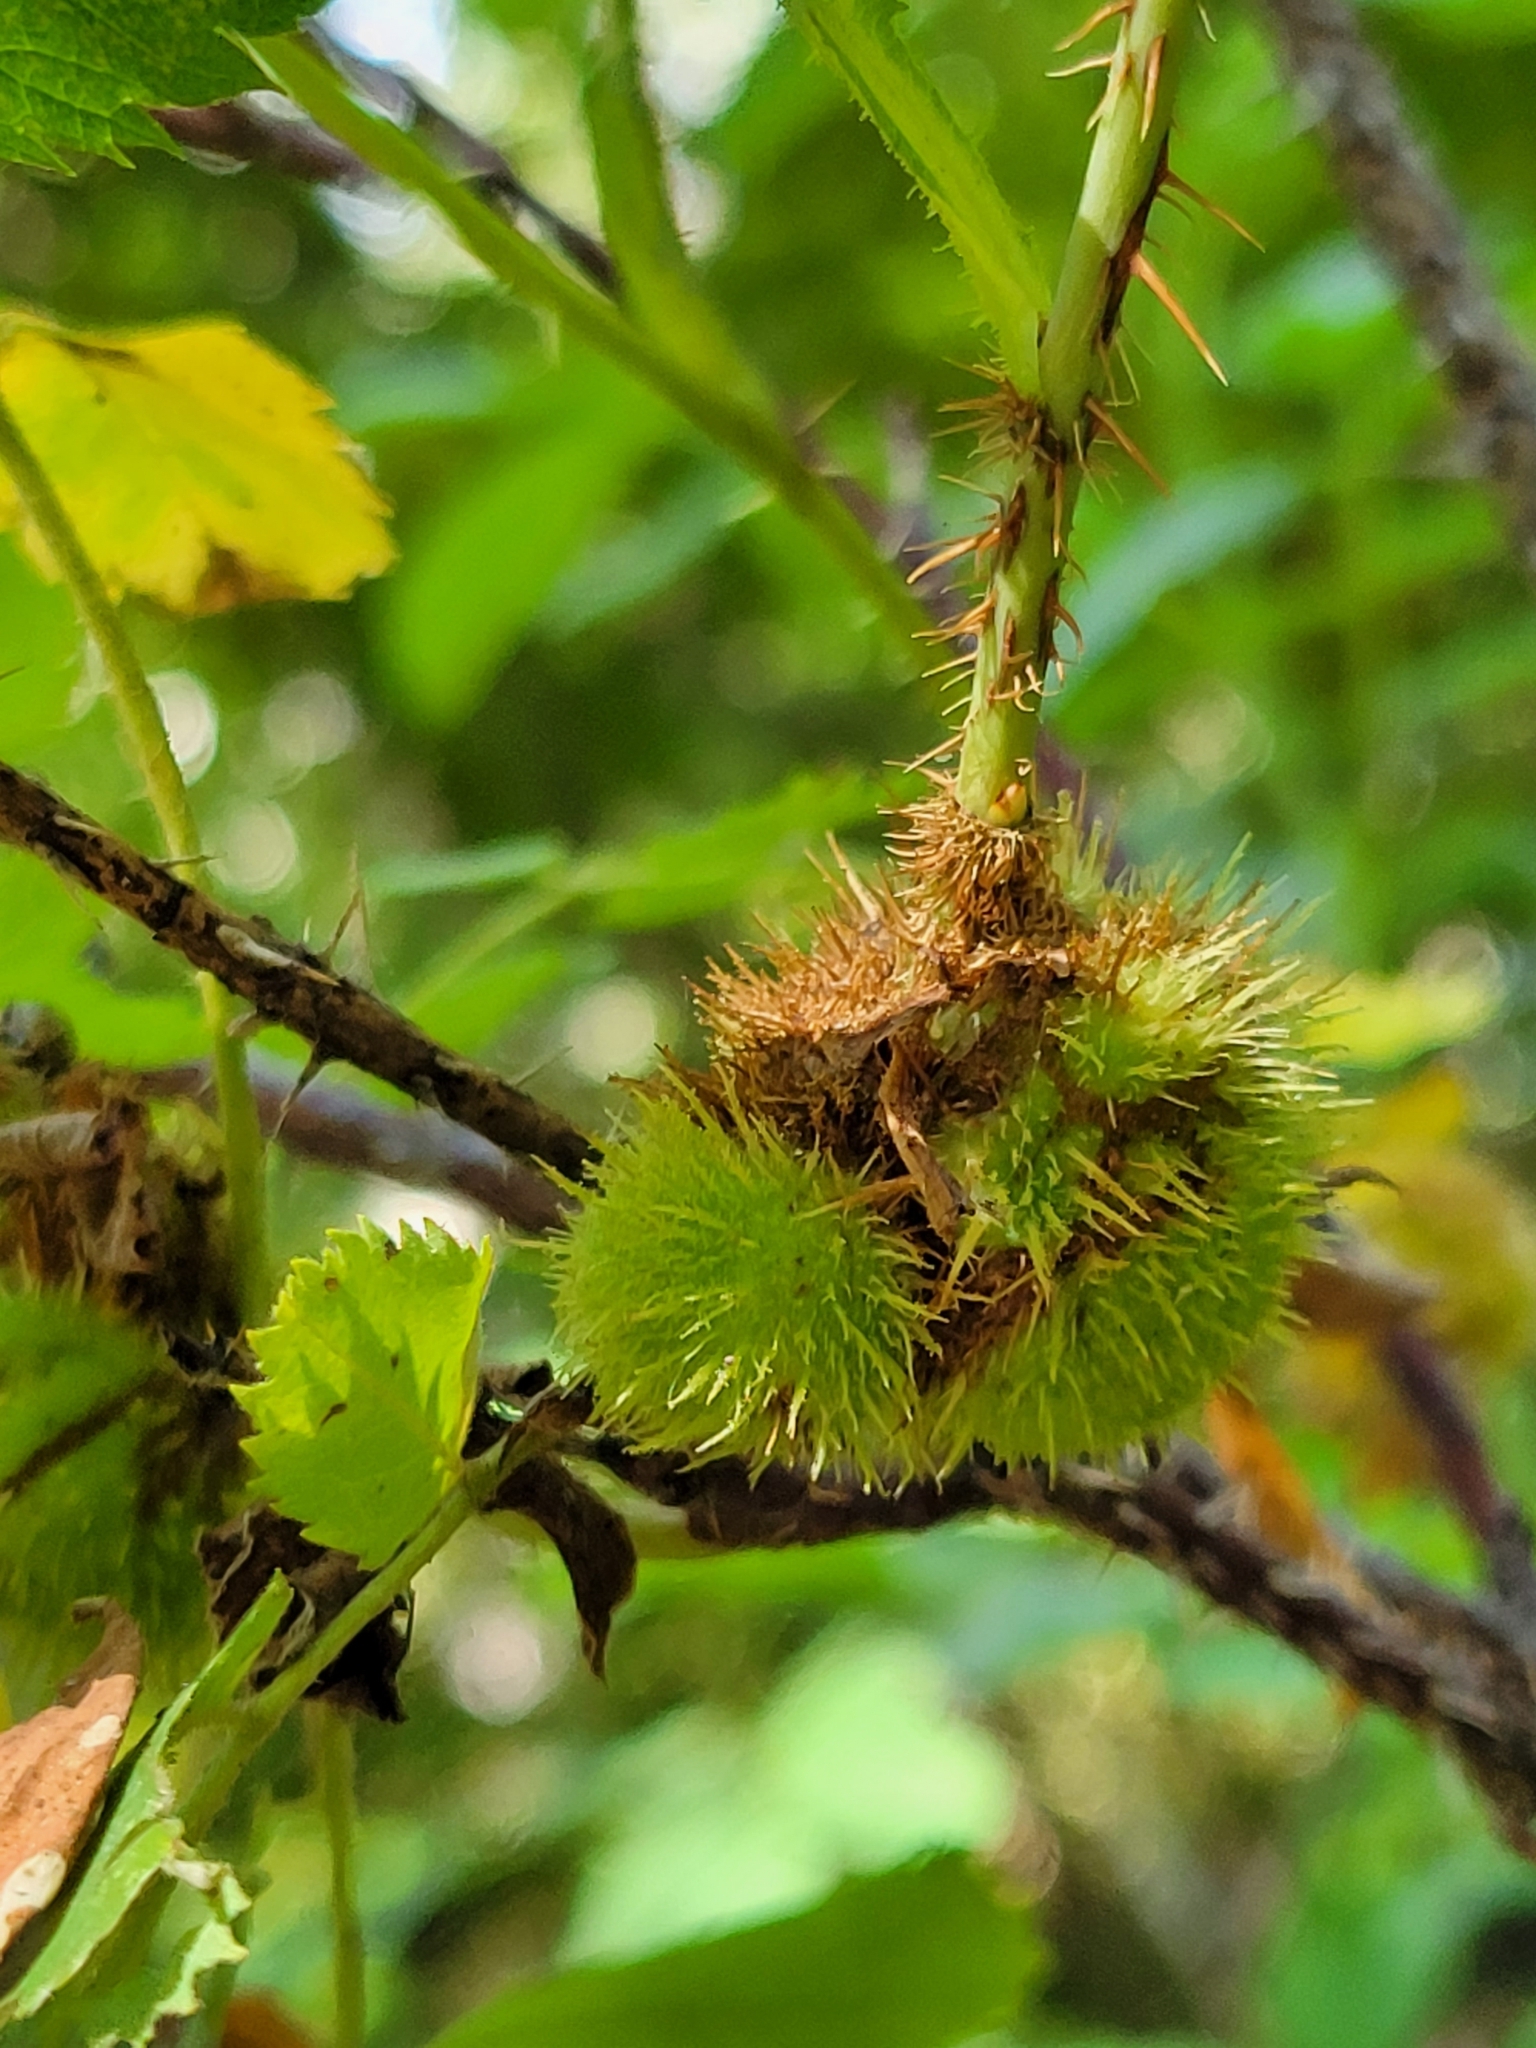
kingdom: Animalia
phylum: Arthropoda
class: Insecta
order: Hymenoptera
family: Cynipidae
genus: Diplolepis
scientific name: Diplolepis spinosa
